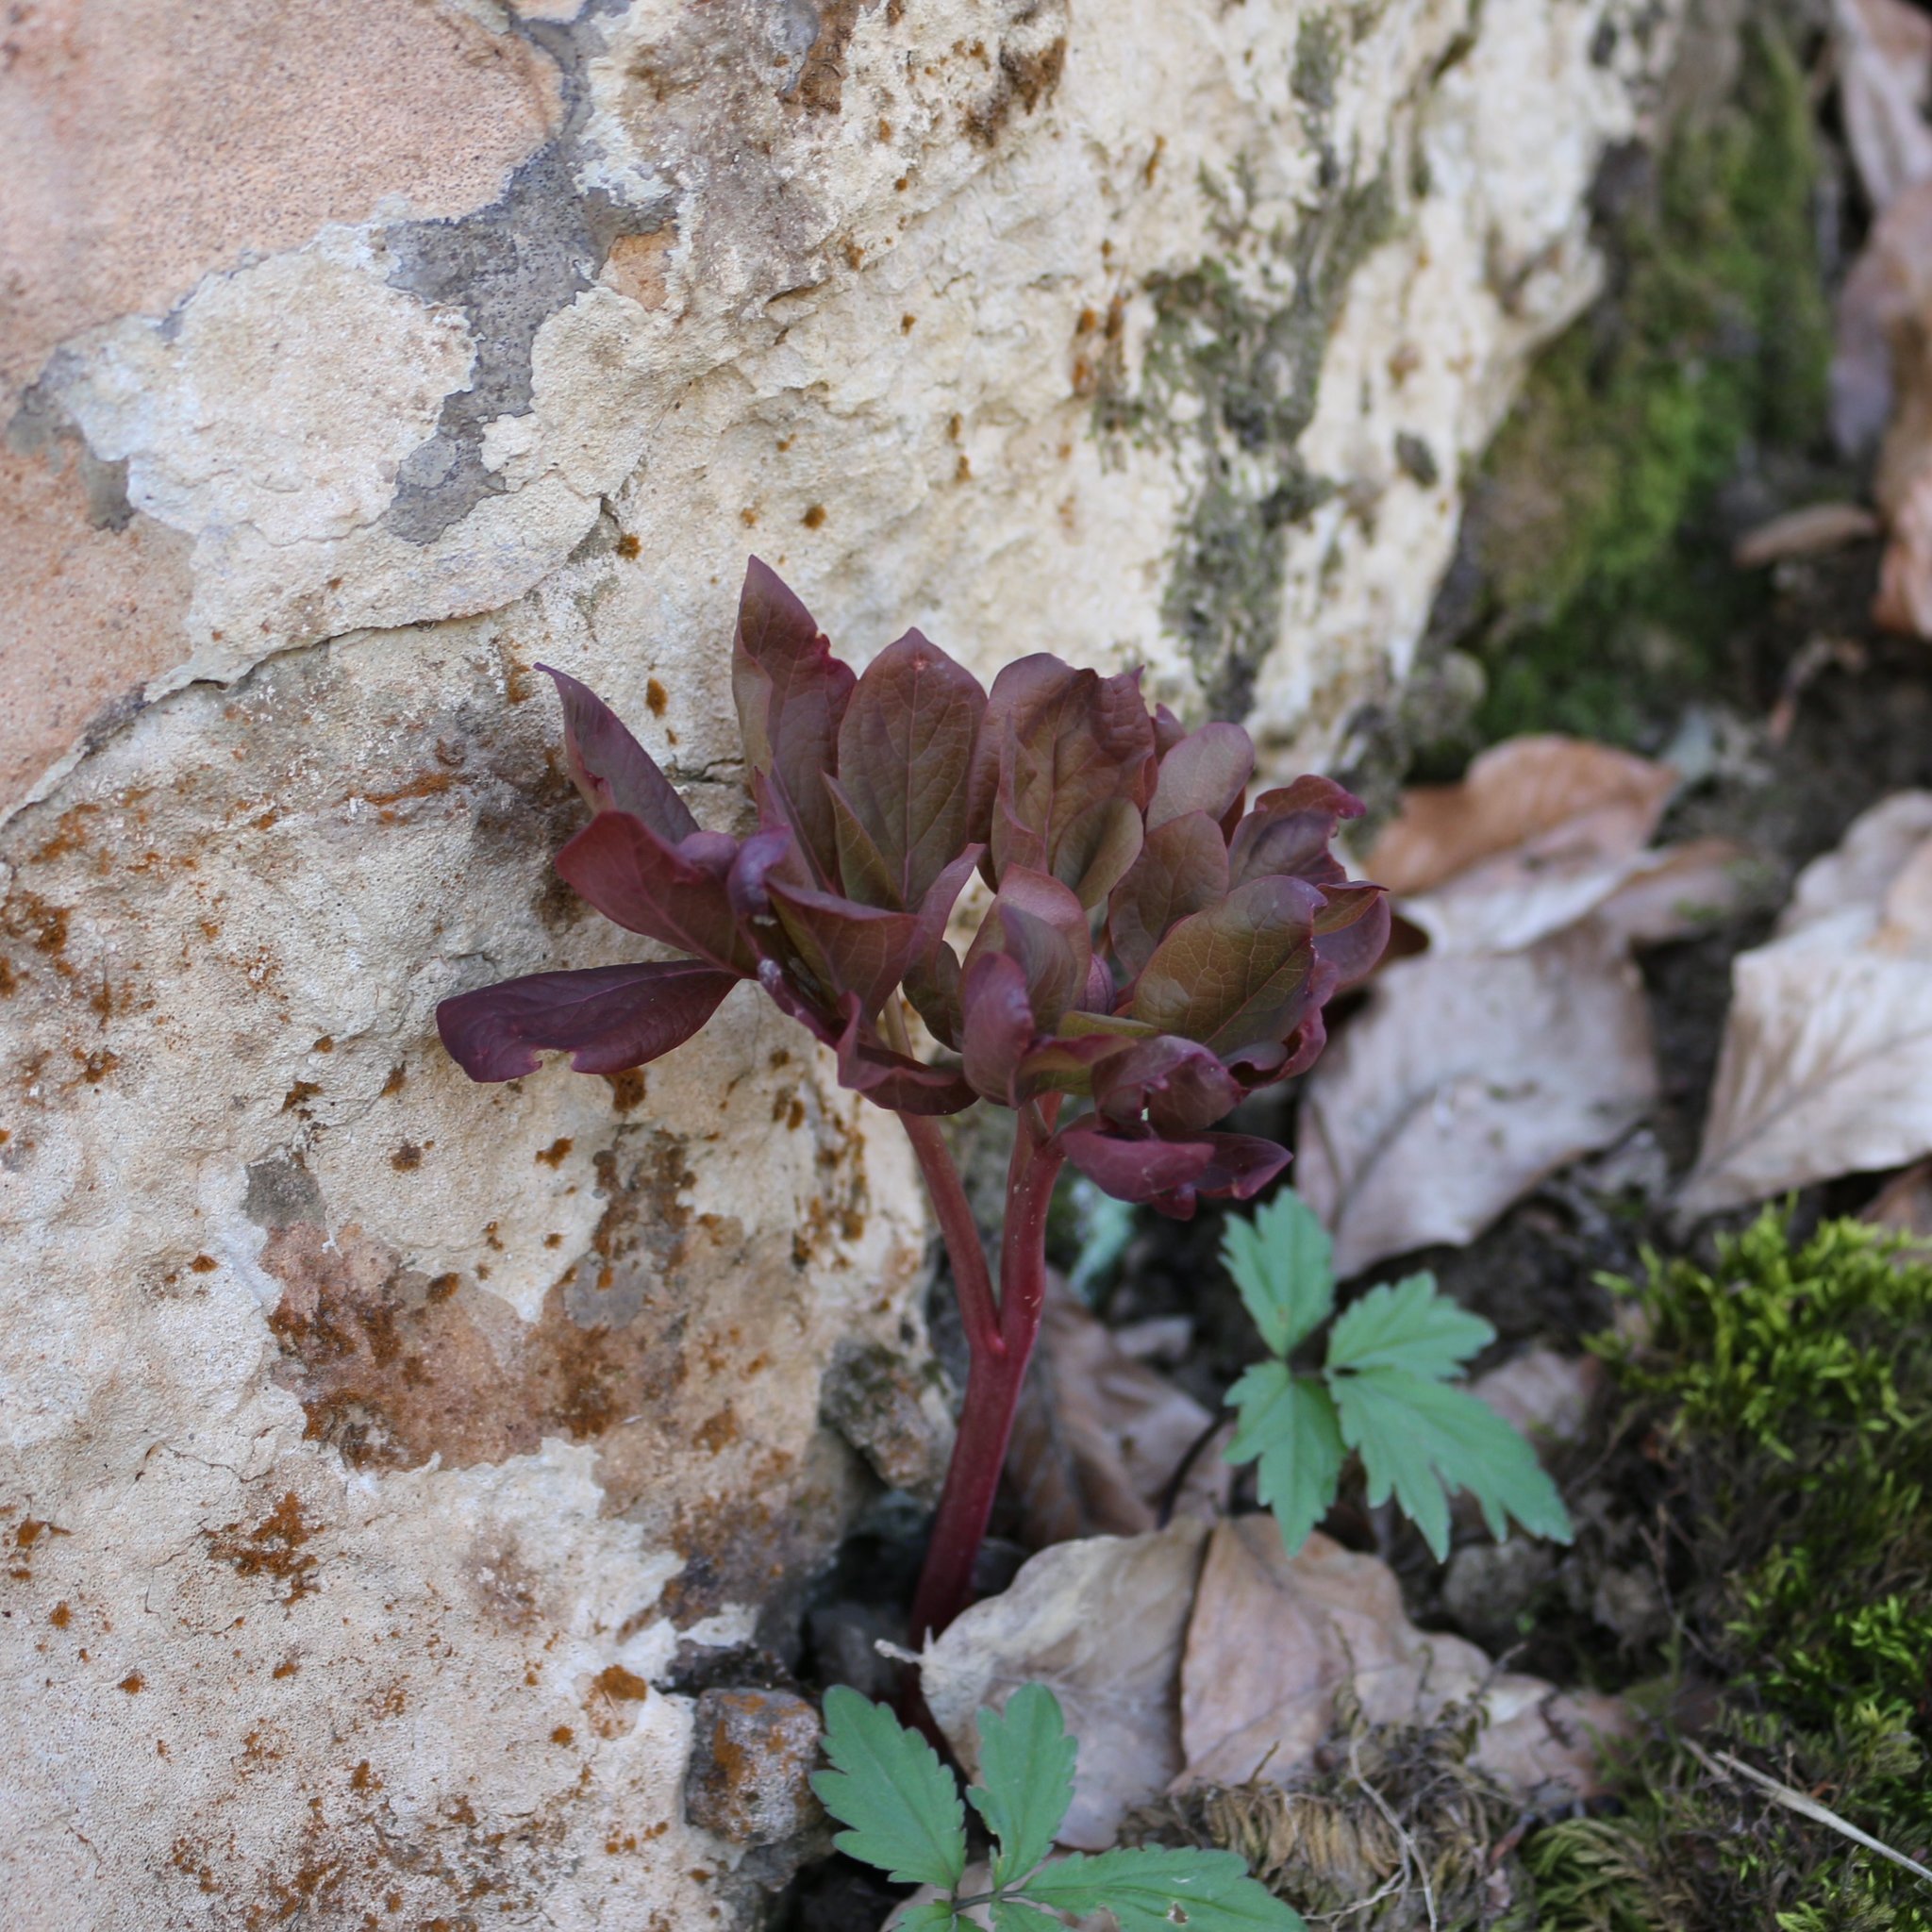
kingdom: Plantae
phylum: Tracheophyta
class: Magnoliopsida
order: Saxifragales
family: Paeoniaceae
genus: Paeonia
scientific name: Paeonia caucasica
